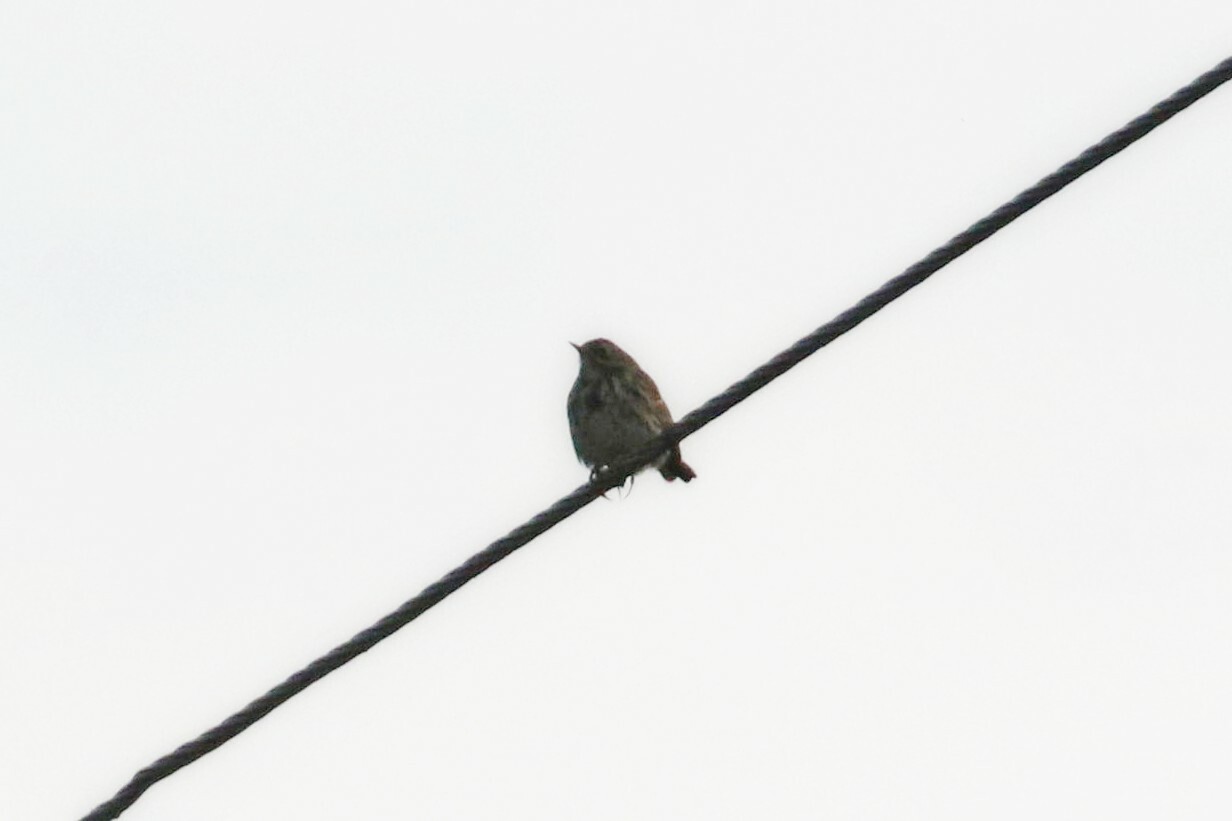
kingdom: Animalia
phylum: Chordata
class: Aves
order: Passeriformes
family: Motacillidae
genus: Anthus
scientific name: Anthus pratensis
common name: Meadow pipit
